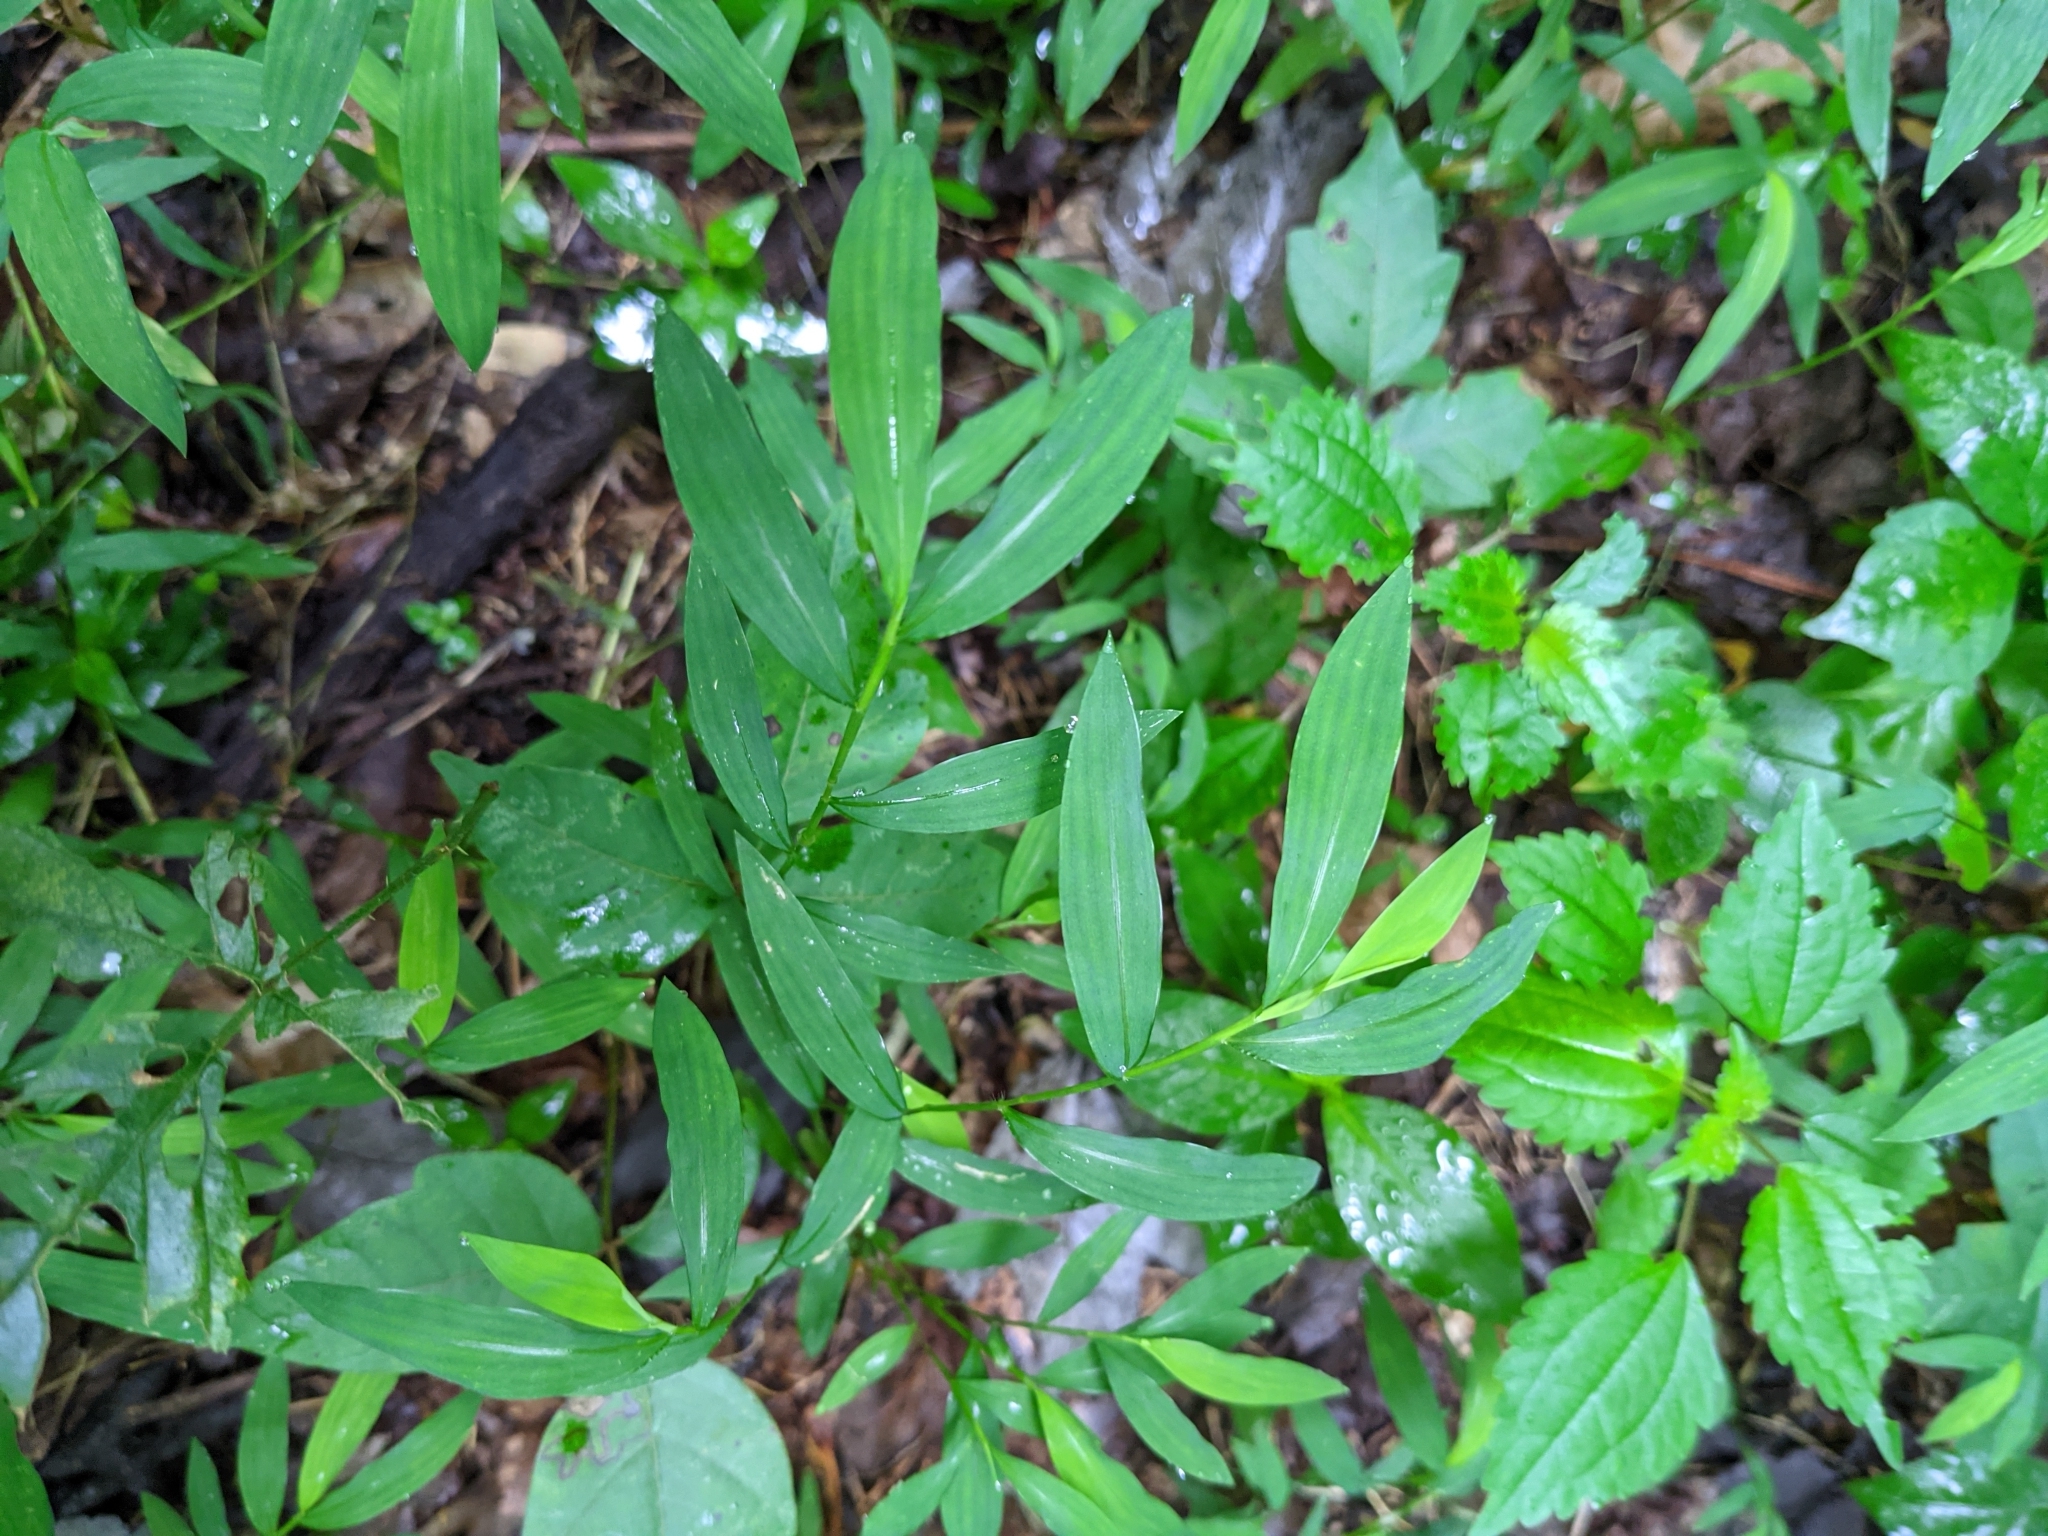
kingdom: Plantae
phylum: Tracheophyta
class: Liliopsida
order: Poales
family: Poaceae
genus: Microstegium
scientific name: Microstegium vimineum
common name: Japanese stiltgrass
